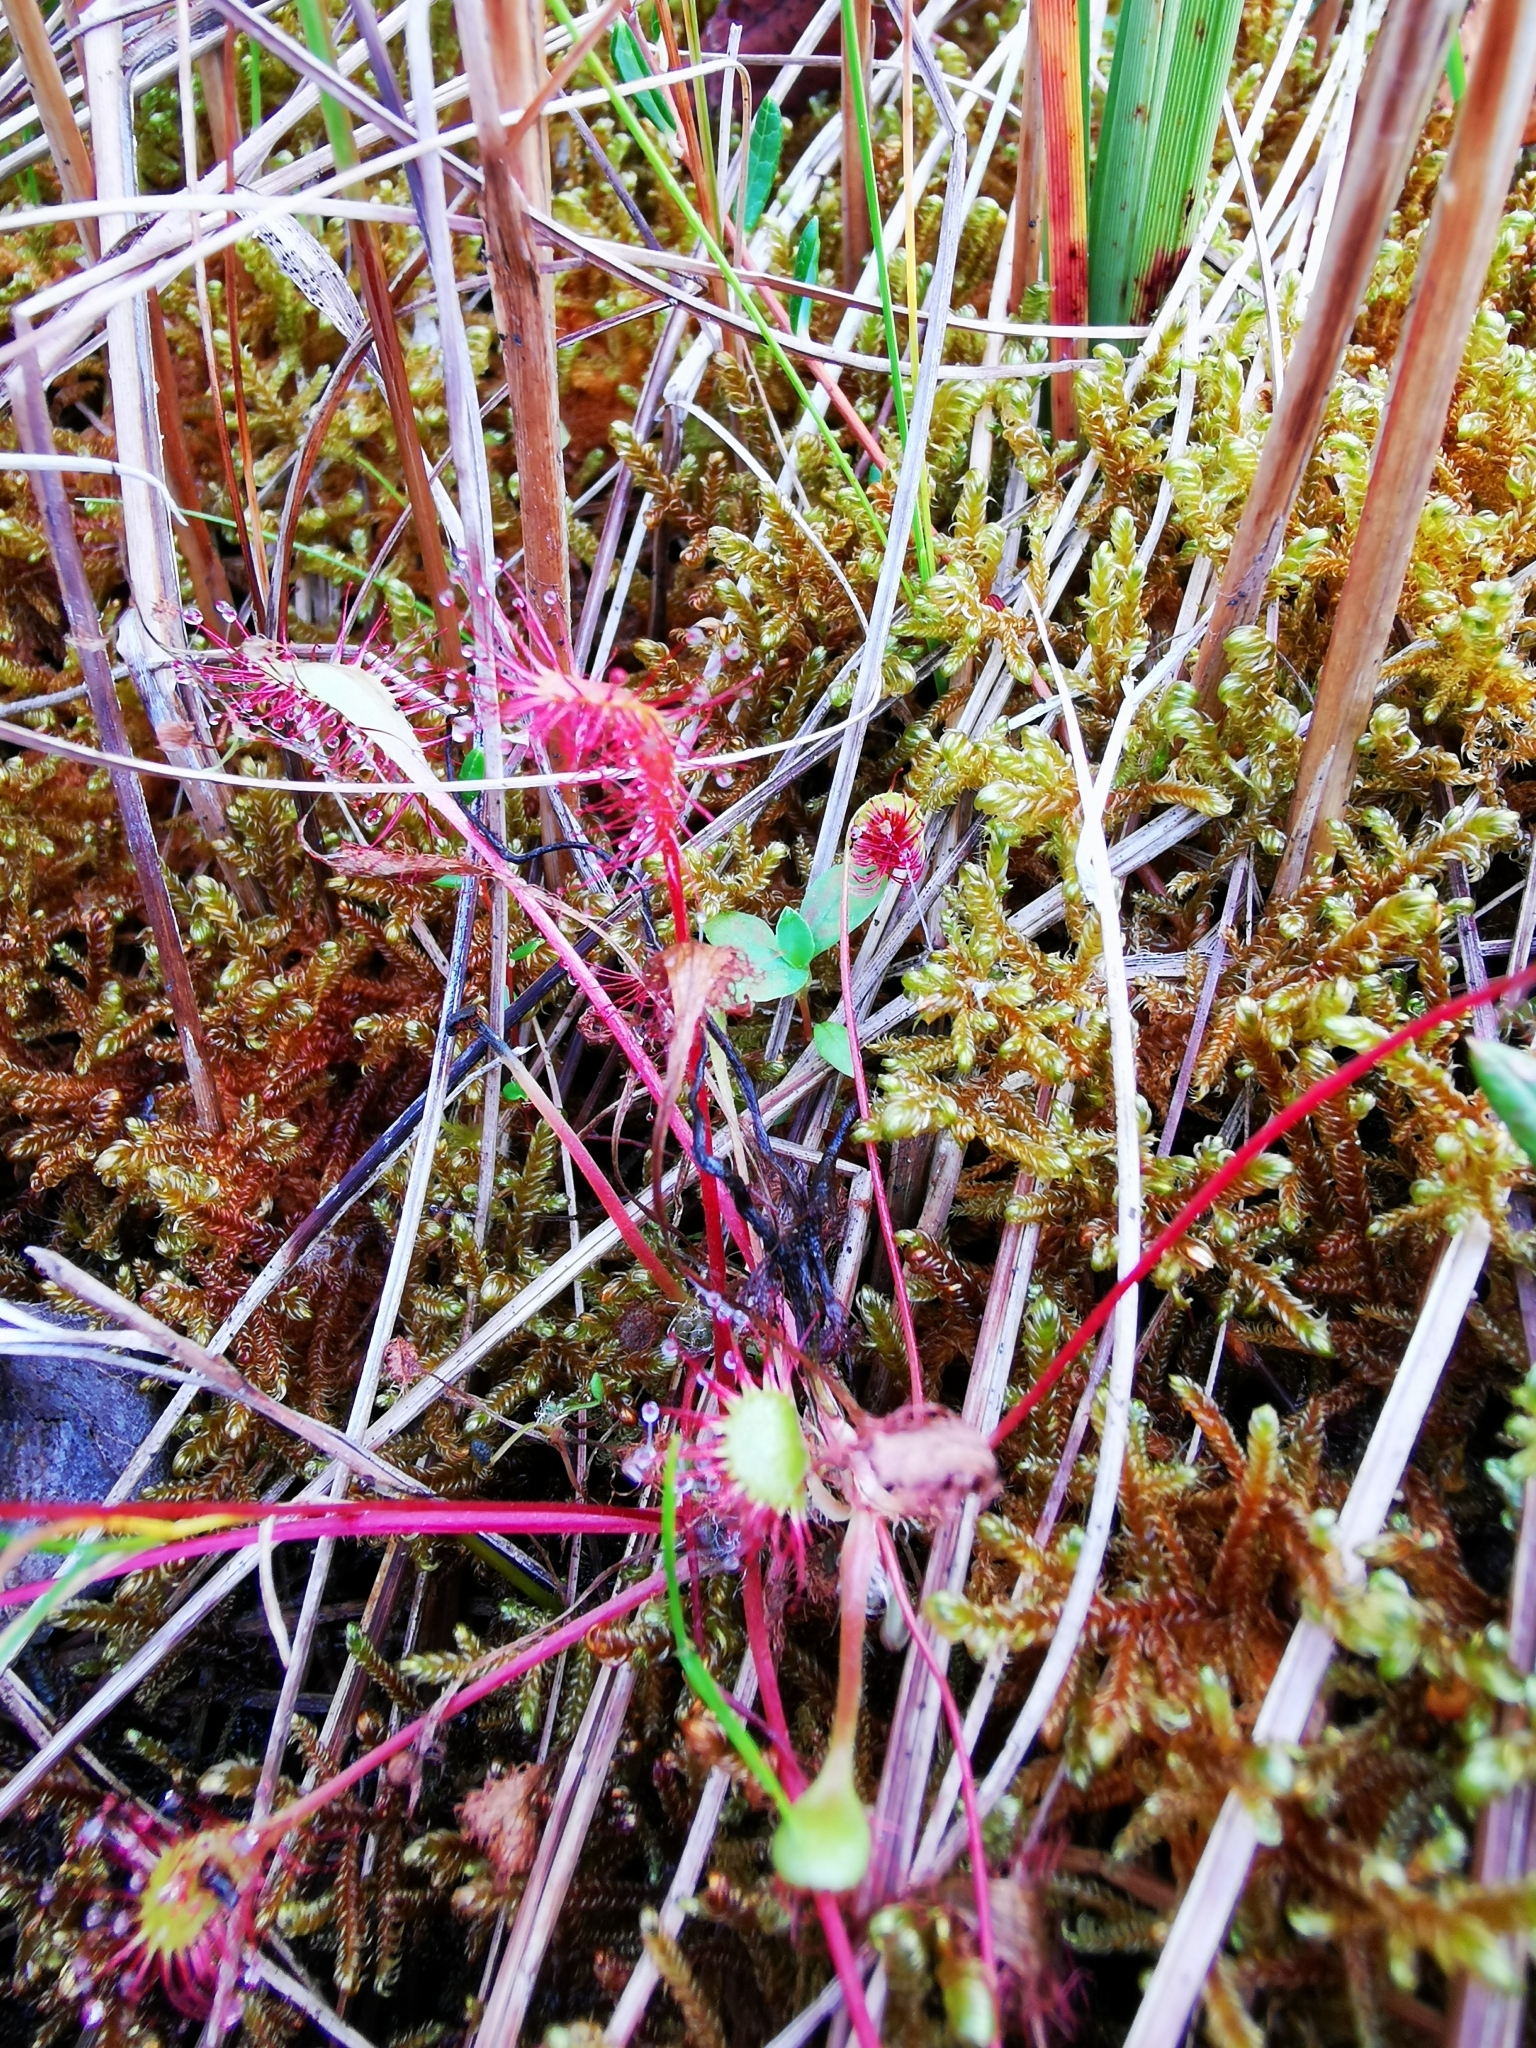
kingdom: Plantae
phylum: Tracheophyta
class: Magnoliopsida
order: Caryophyllales
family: Droseraceae
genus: Drosera
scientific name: Drosera anglica
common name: Great sundew
